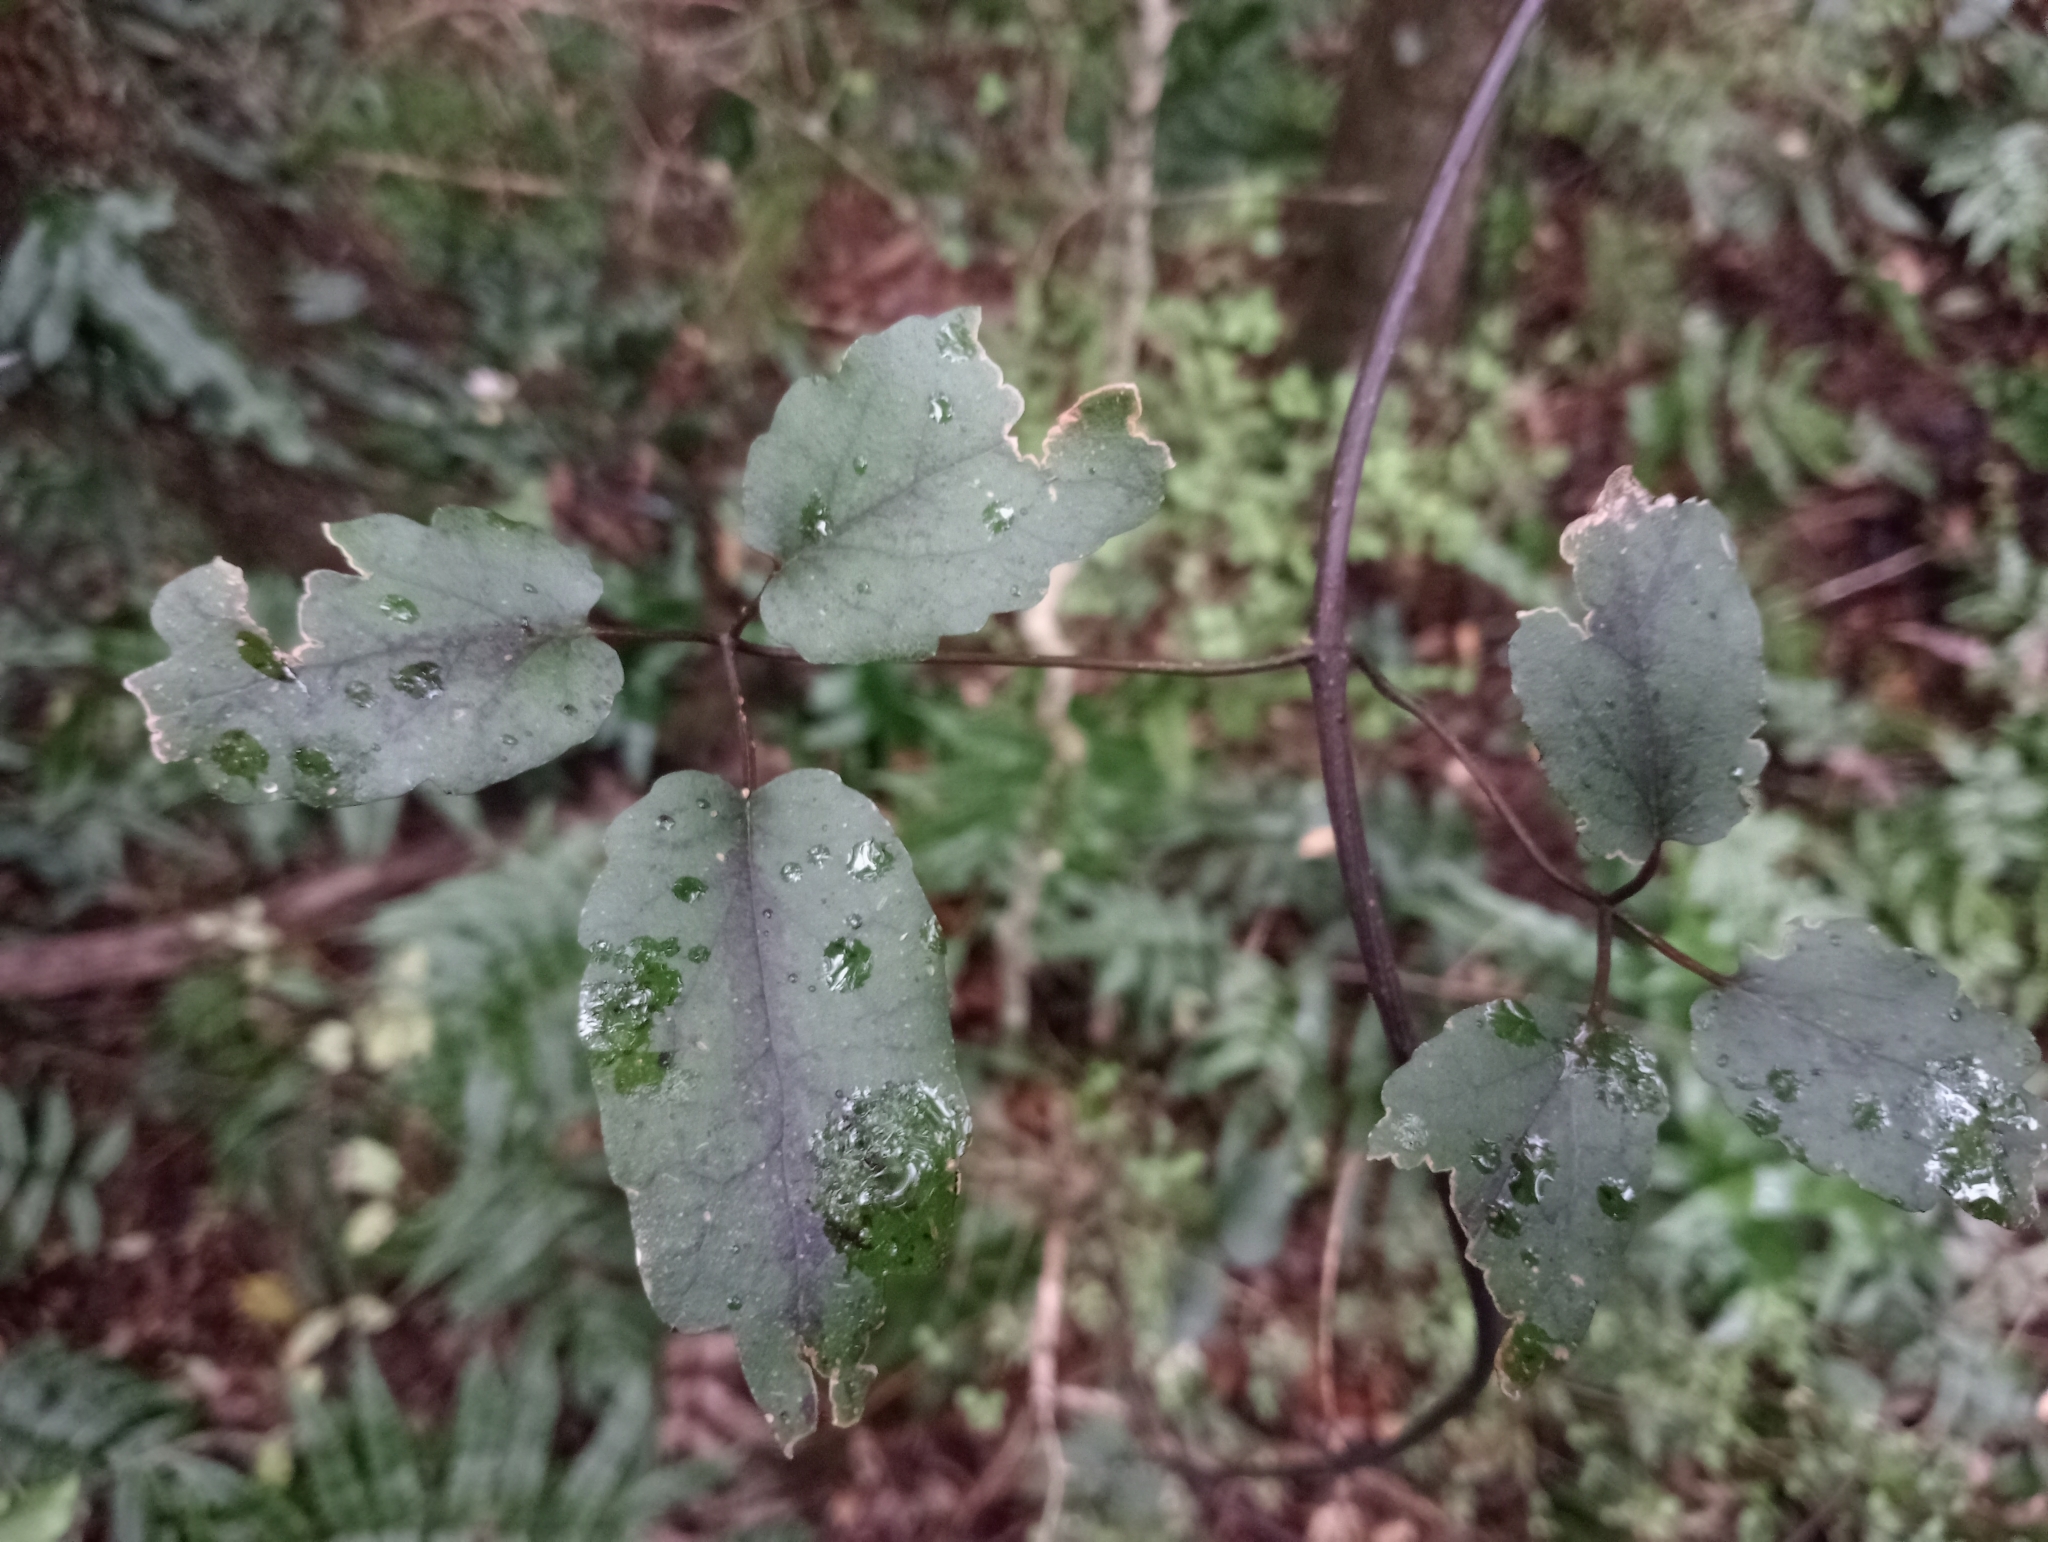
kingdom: Plantae
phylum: Tracheophyta
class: Magnoliopsida
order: Ranunculales
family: Ranunculaceae
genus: Clematis
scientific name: Clematis paniculata
